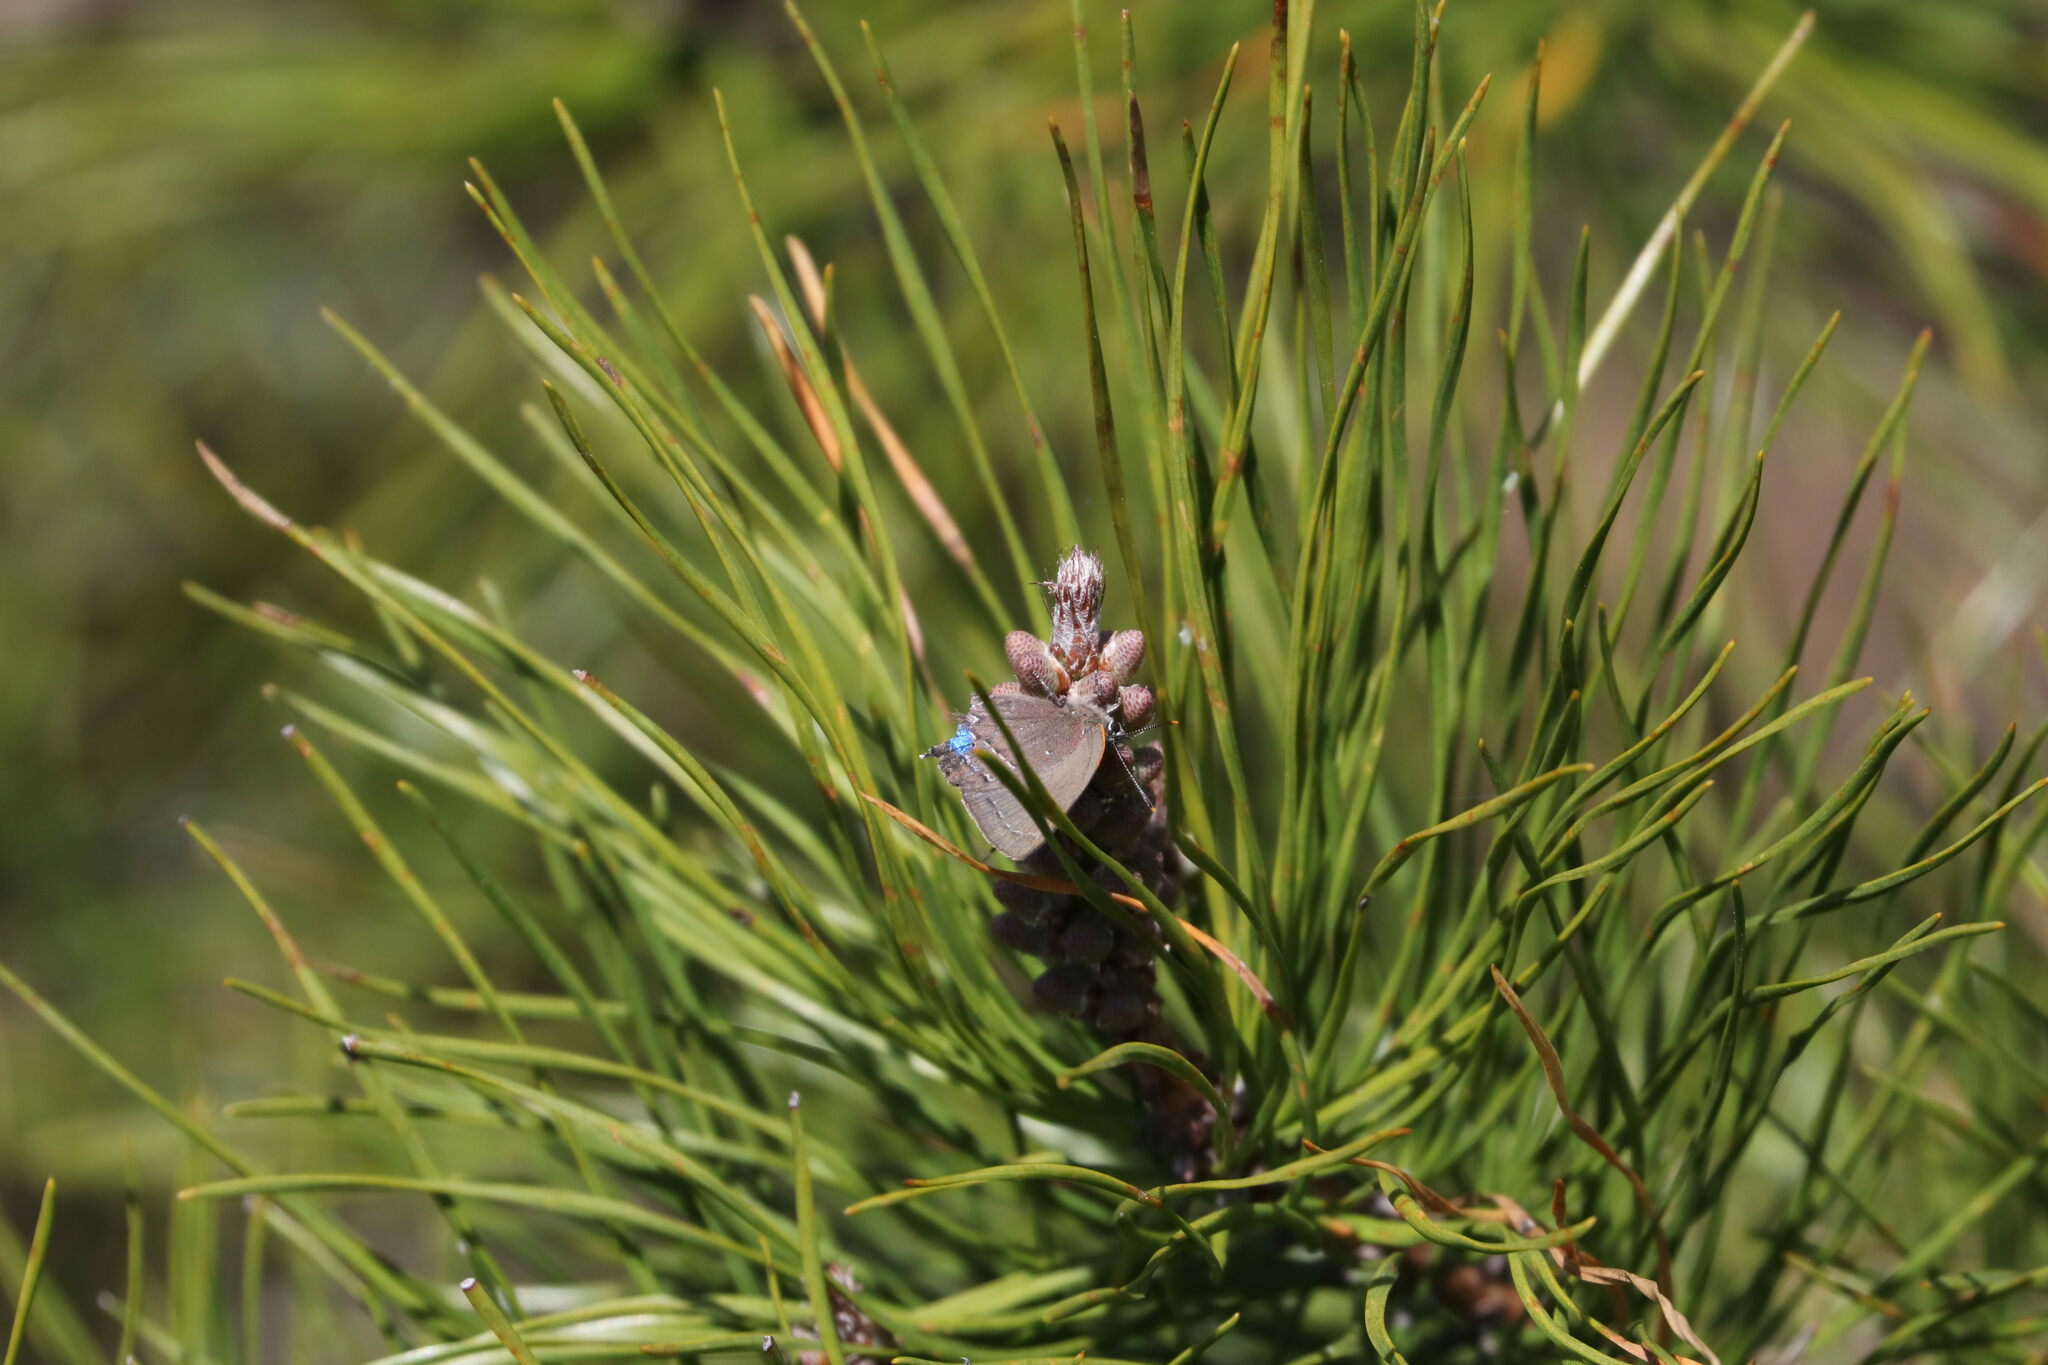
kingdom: Animalia
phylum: Arthropoda
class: Insecta
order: Lepidoptera
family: Lycaenidae
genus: Parrhasius
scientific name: Parrhasius m-album
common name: White m hairstreak
